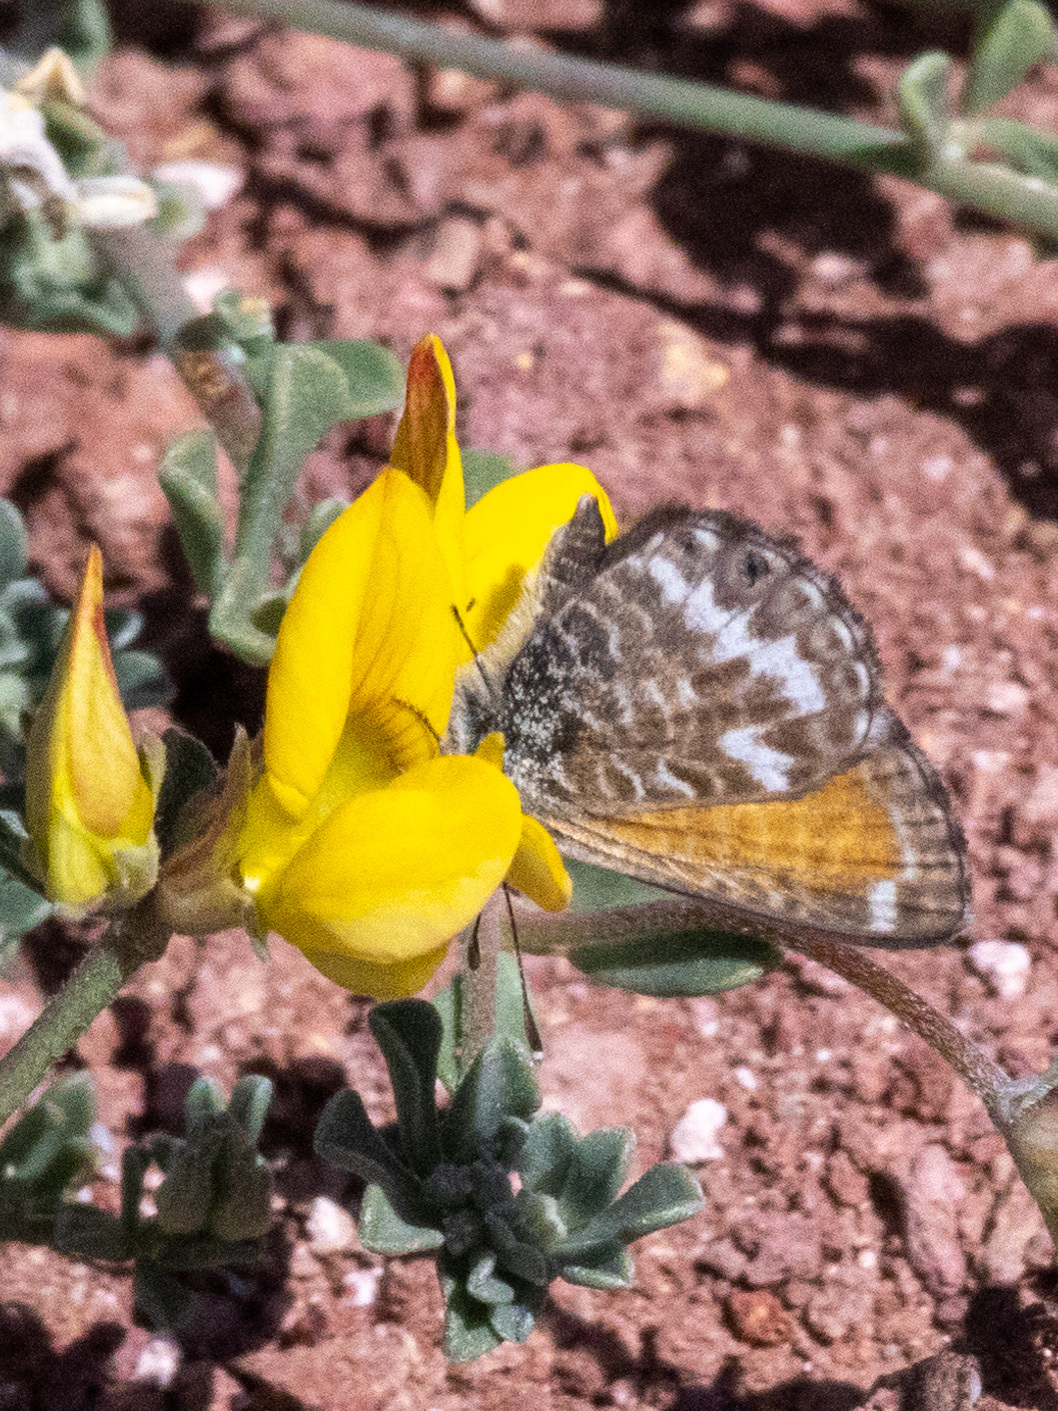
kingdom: Animalia
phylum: Arthropoda
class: Insecta
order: Lepidoptera
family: Lycaenidae
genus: Cyclyrius
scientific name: Cyclyrius webbianus
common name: Canary blue
